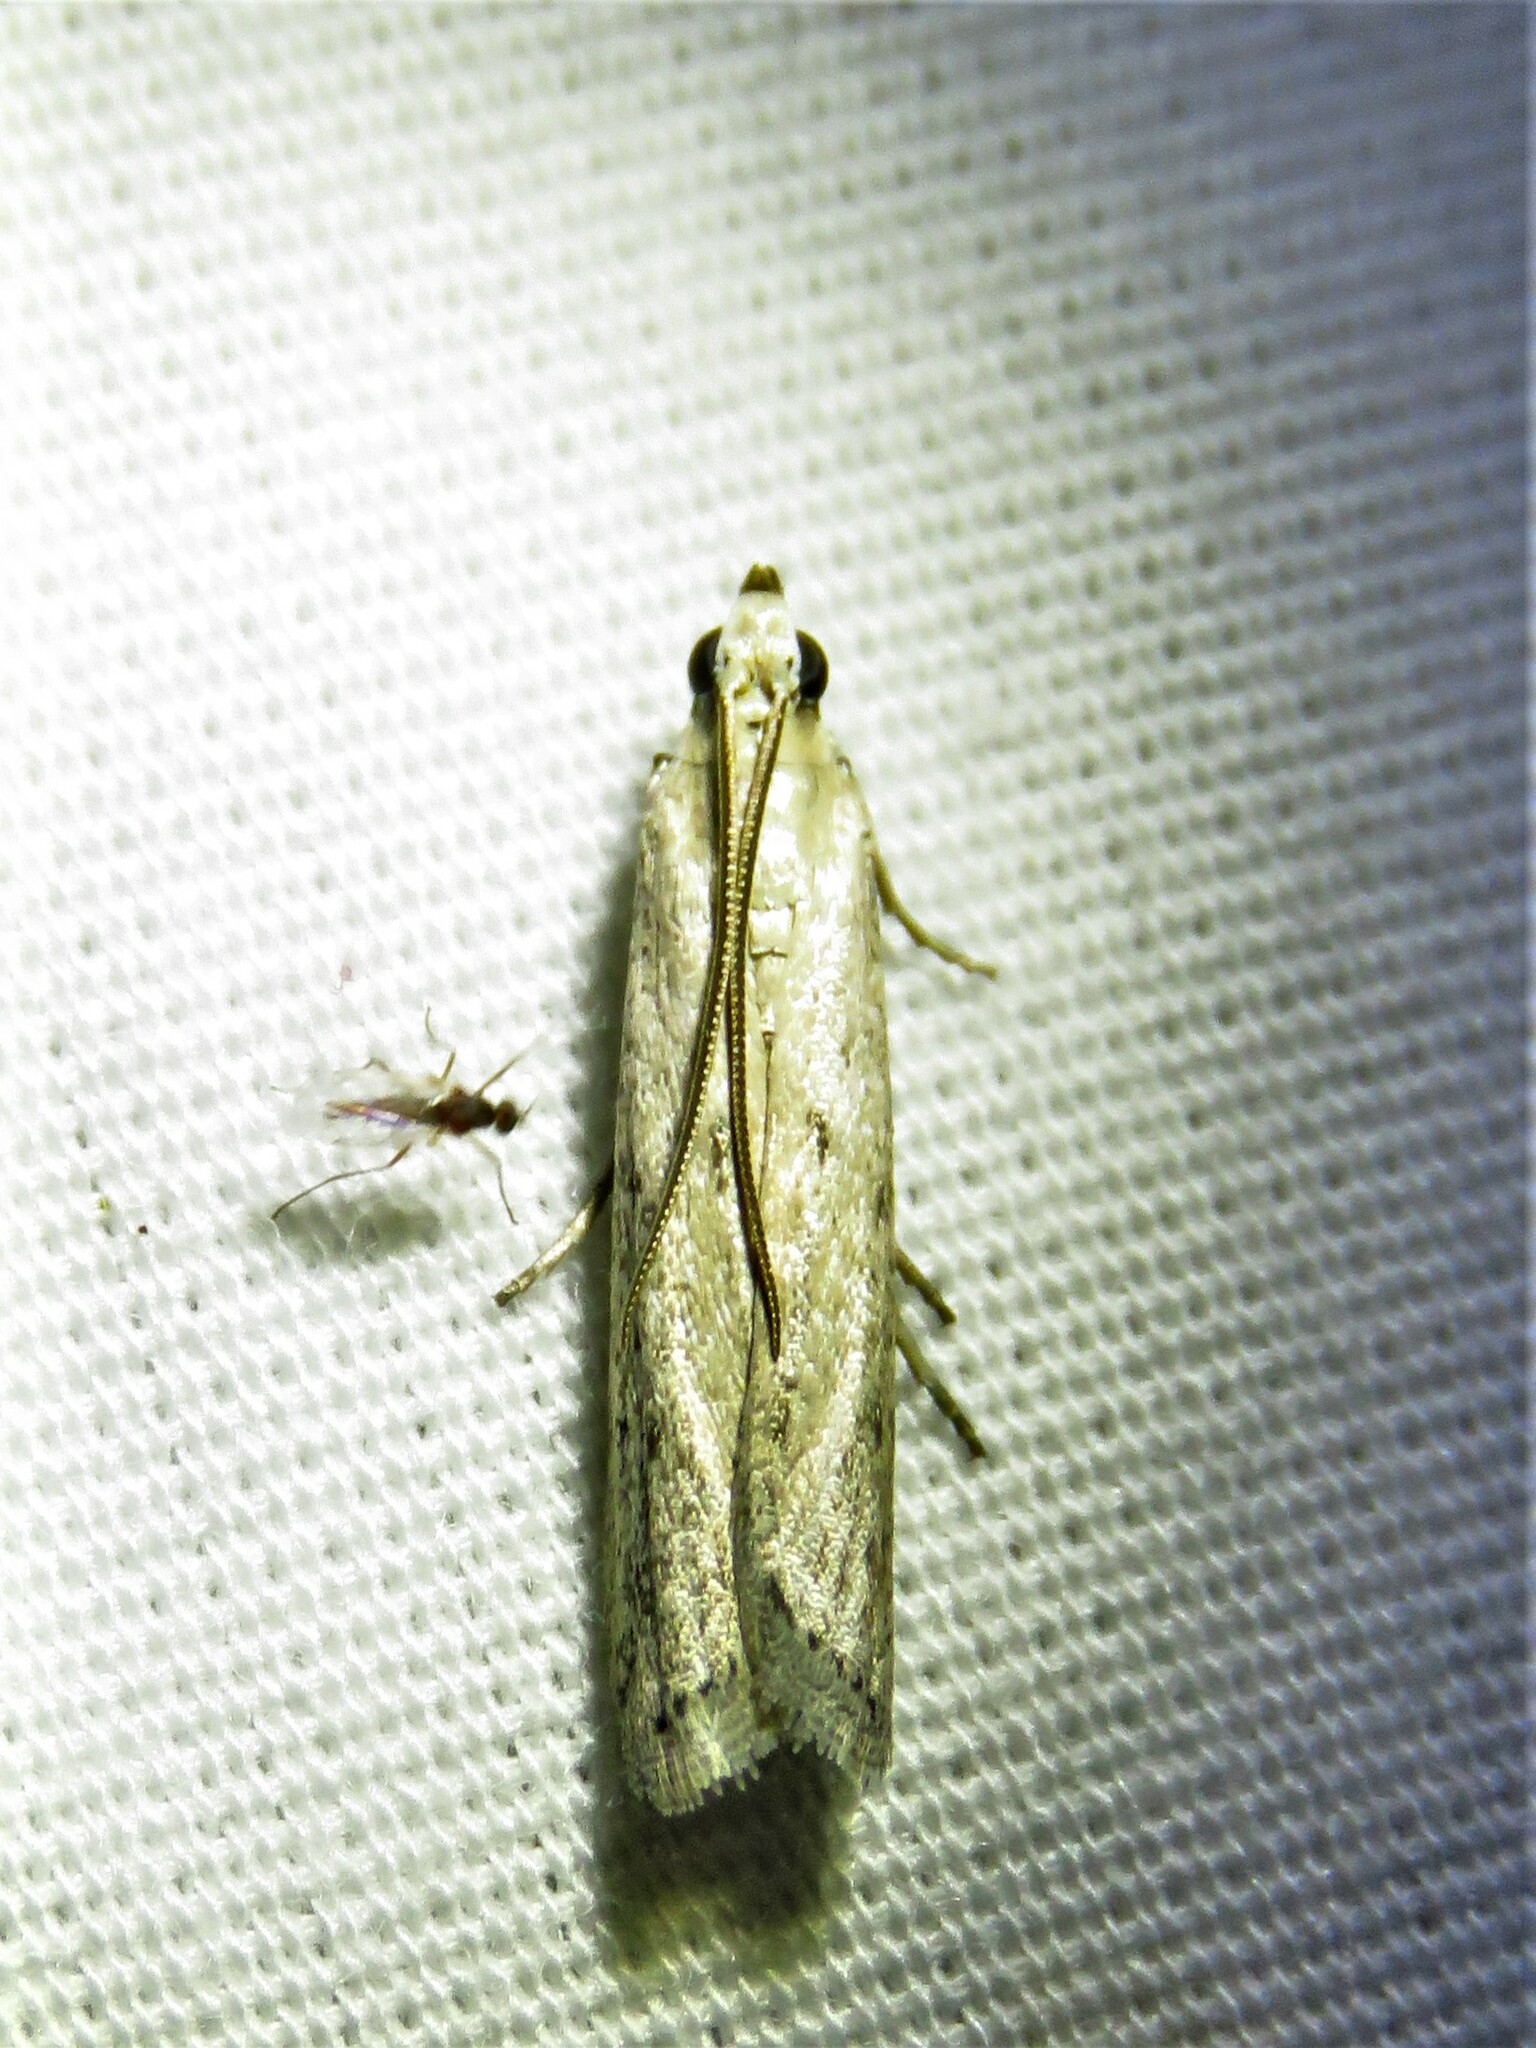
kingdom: Animalia
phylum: Arthropoda
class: Insecta
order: Lepidoptera
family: Pyralidae
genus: Homoeosoma
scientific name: Homoeosoma electella
